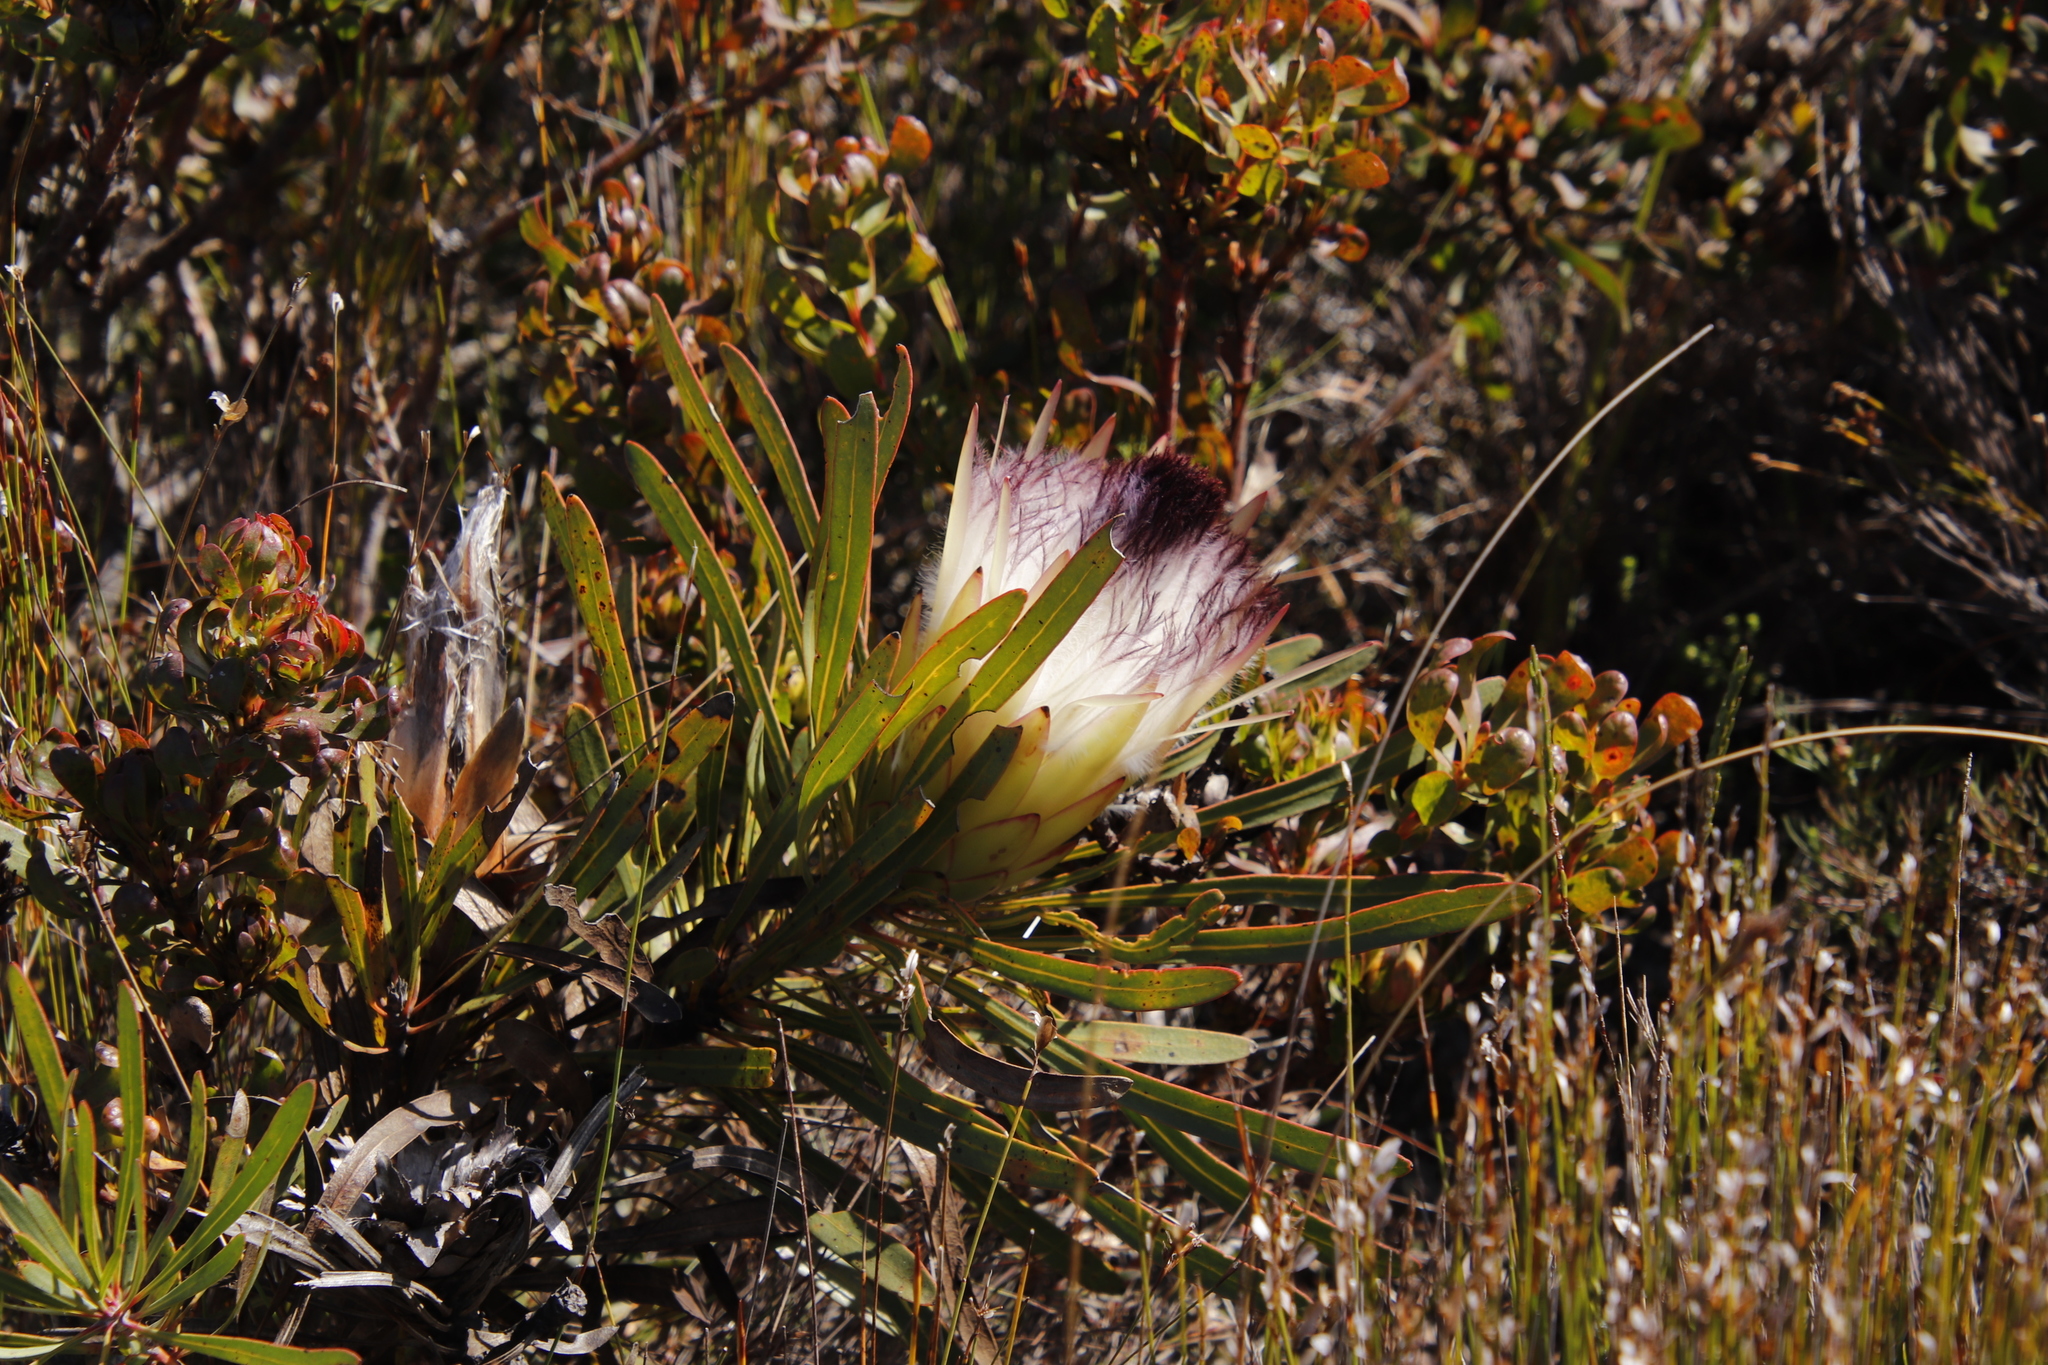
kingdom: Plantae
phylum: Tracheophyta
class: Magnoliopsida
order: Proteales
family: Proteaceae
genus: Protea
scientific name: Protea longifolia
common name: Long-leaf sugarbush
